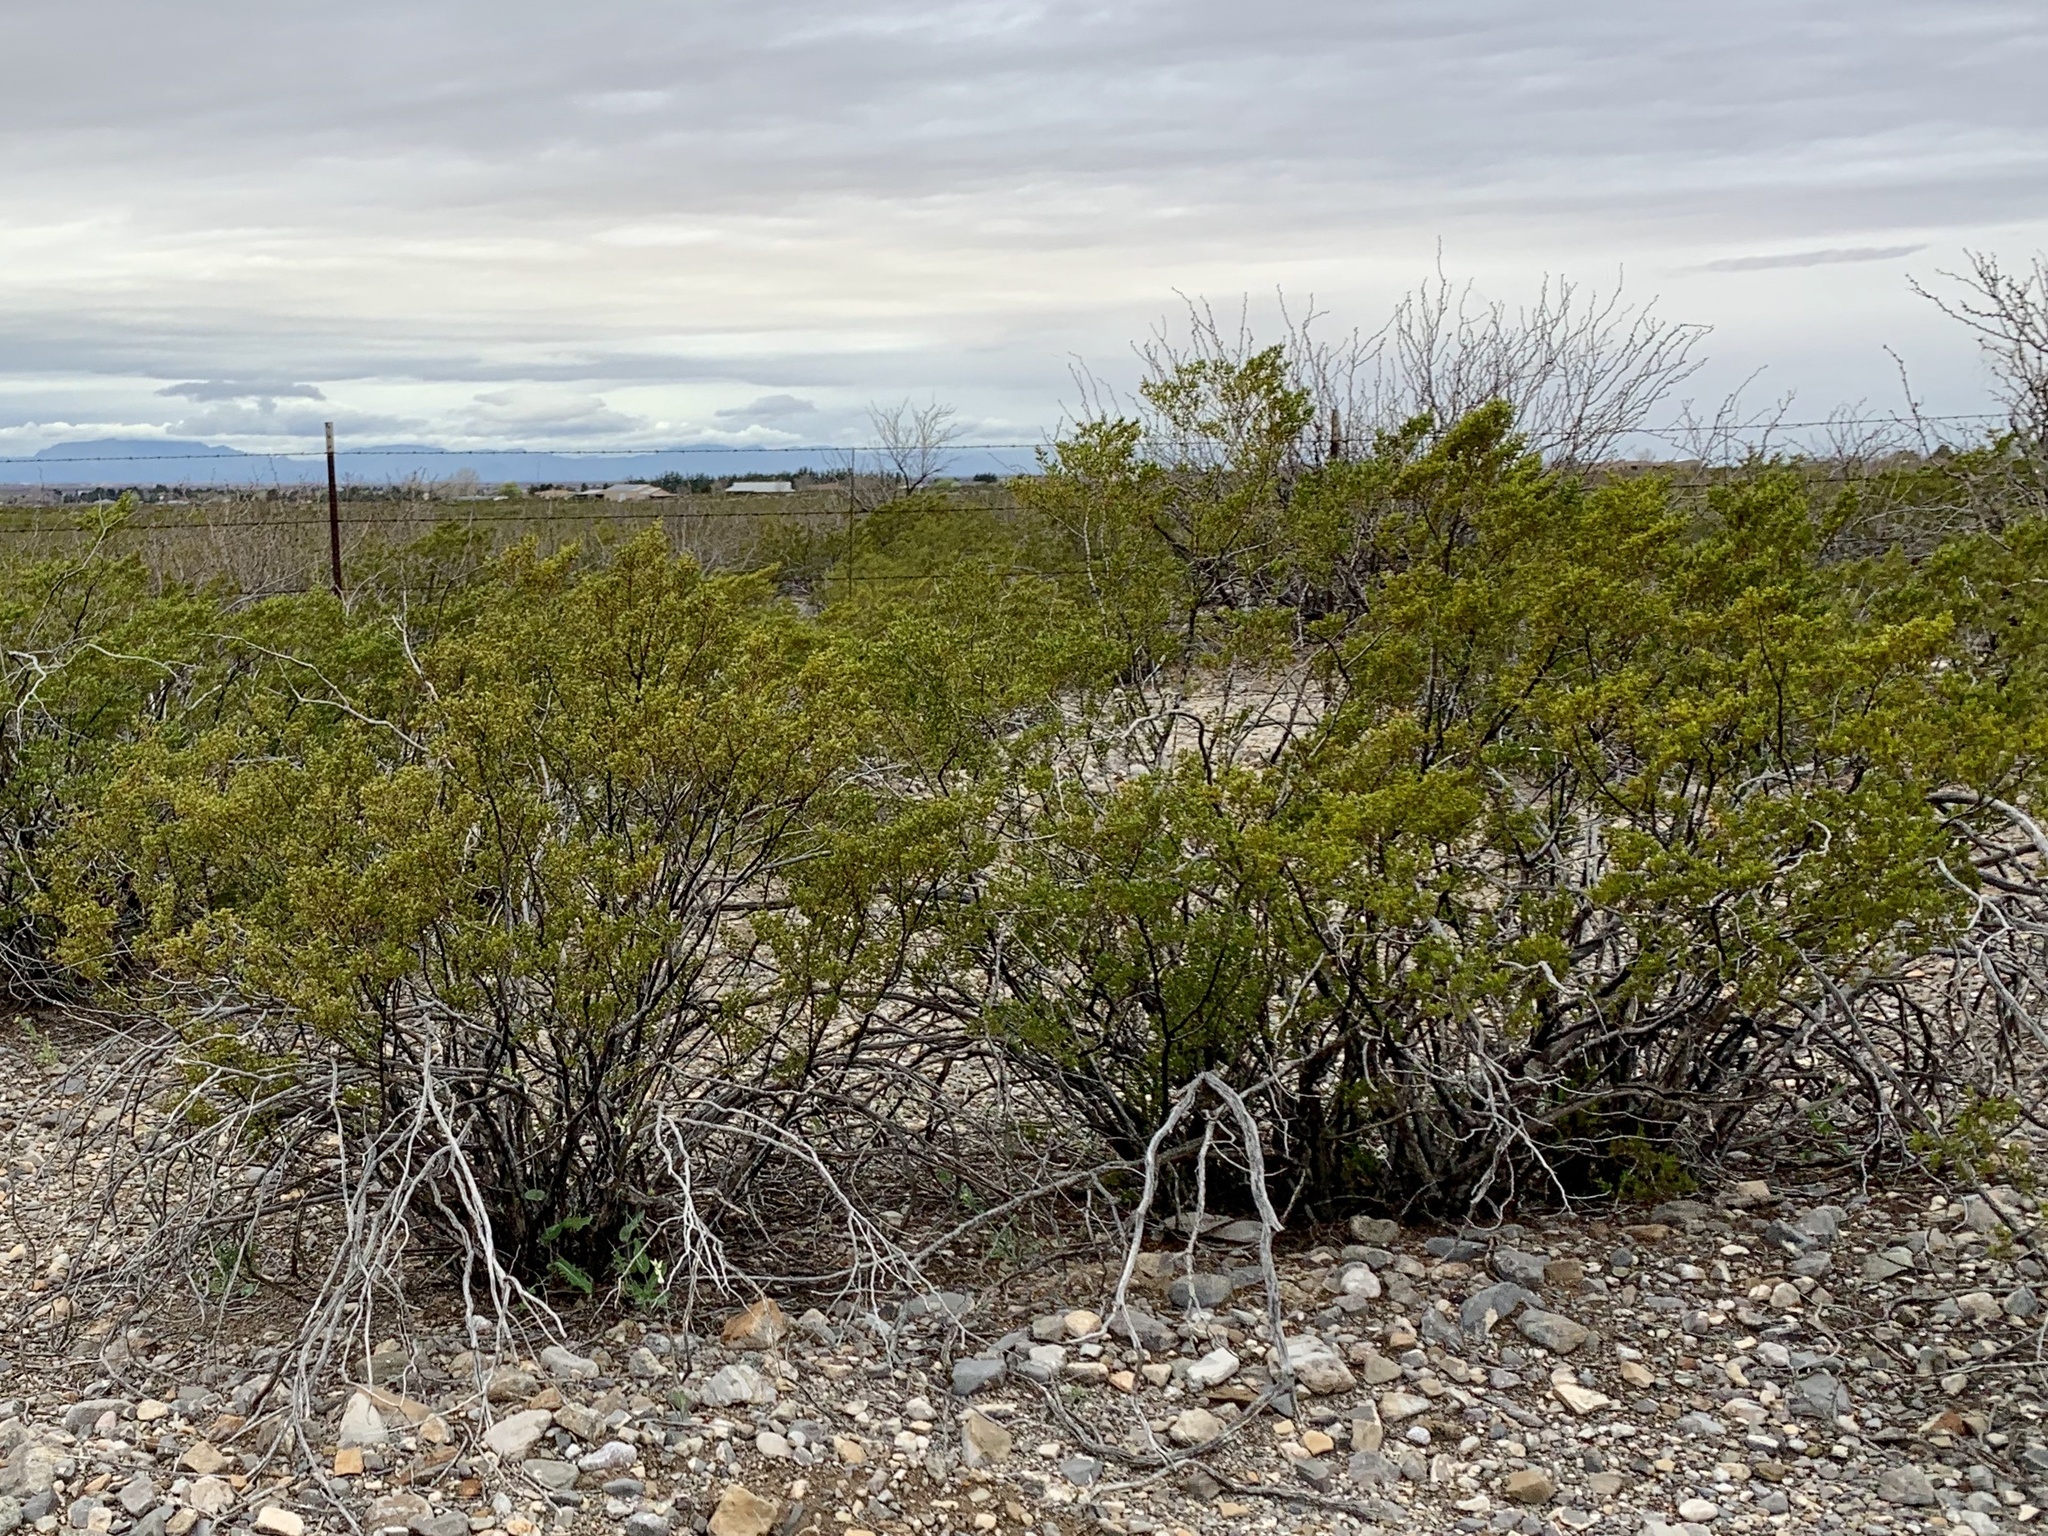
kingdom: Plantae
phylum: Tracheophyta
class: Magnoliopsida
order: Zygophyllales
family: Zygophyllaceae
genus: Larrea
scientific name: Larrea tridentata
